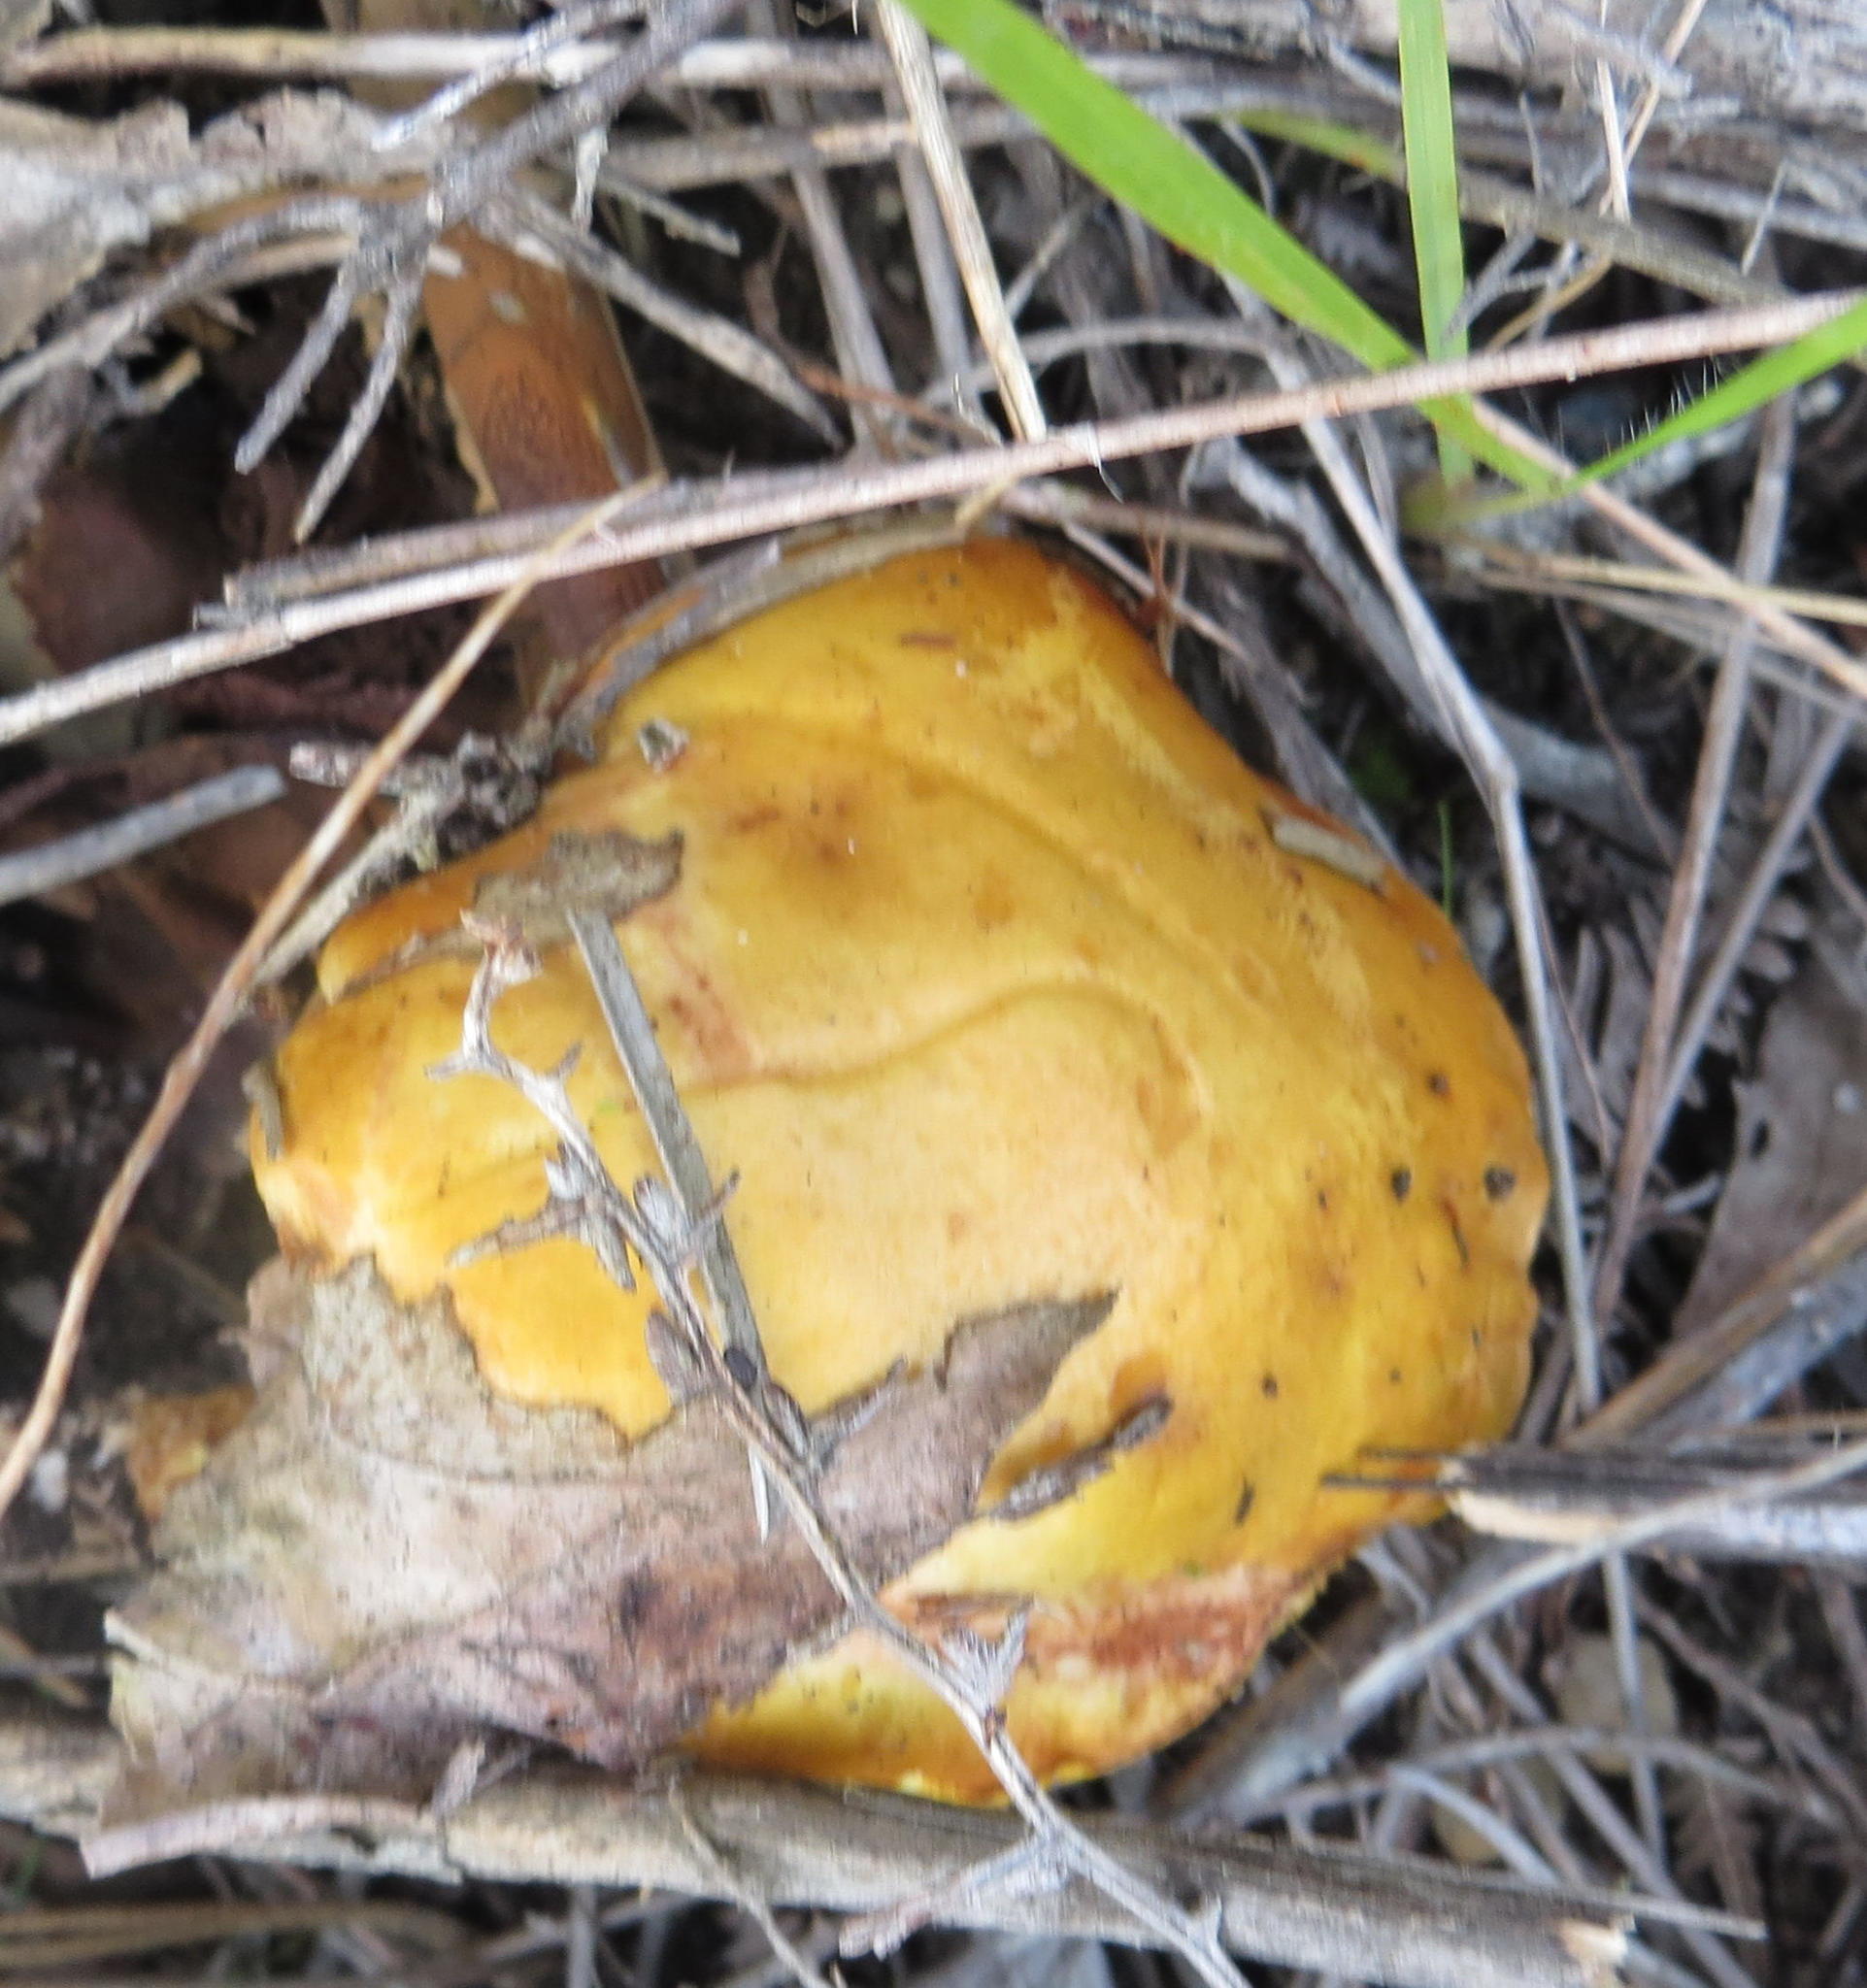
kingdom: Fungi
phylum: Basidiomycota
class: Agaricomycetes
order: Boletales
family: Suillaceae
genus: Suillus
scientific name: Suillus granulatus
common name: Weeping bolete
